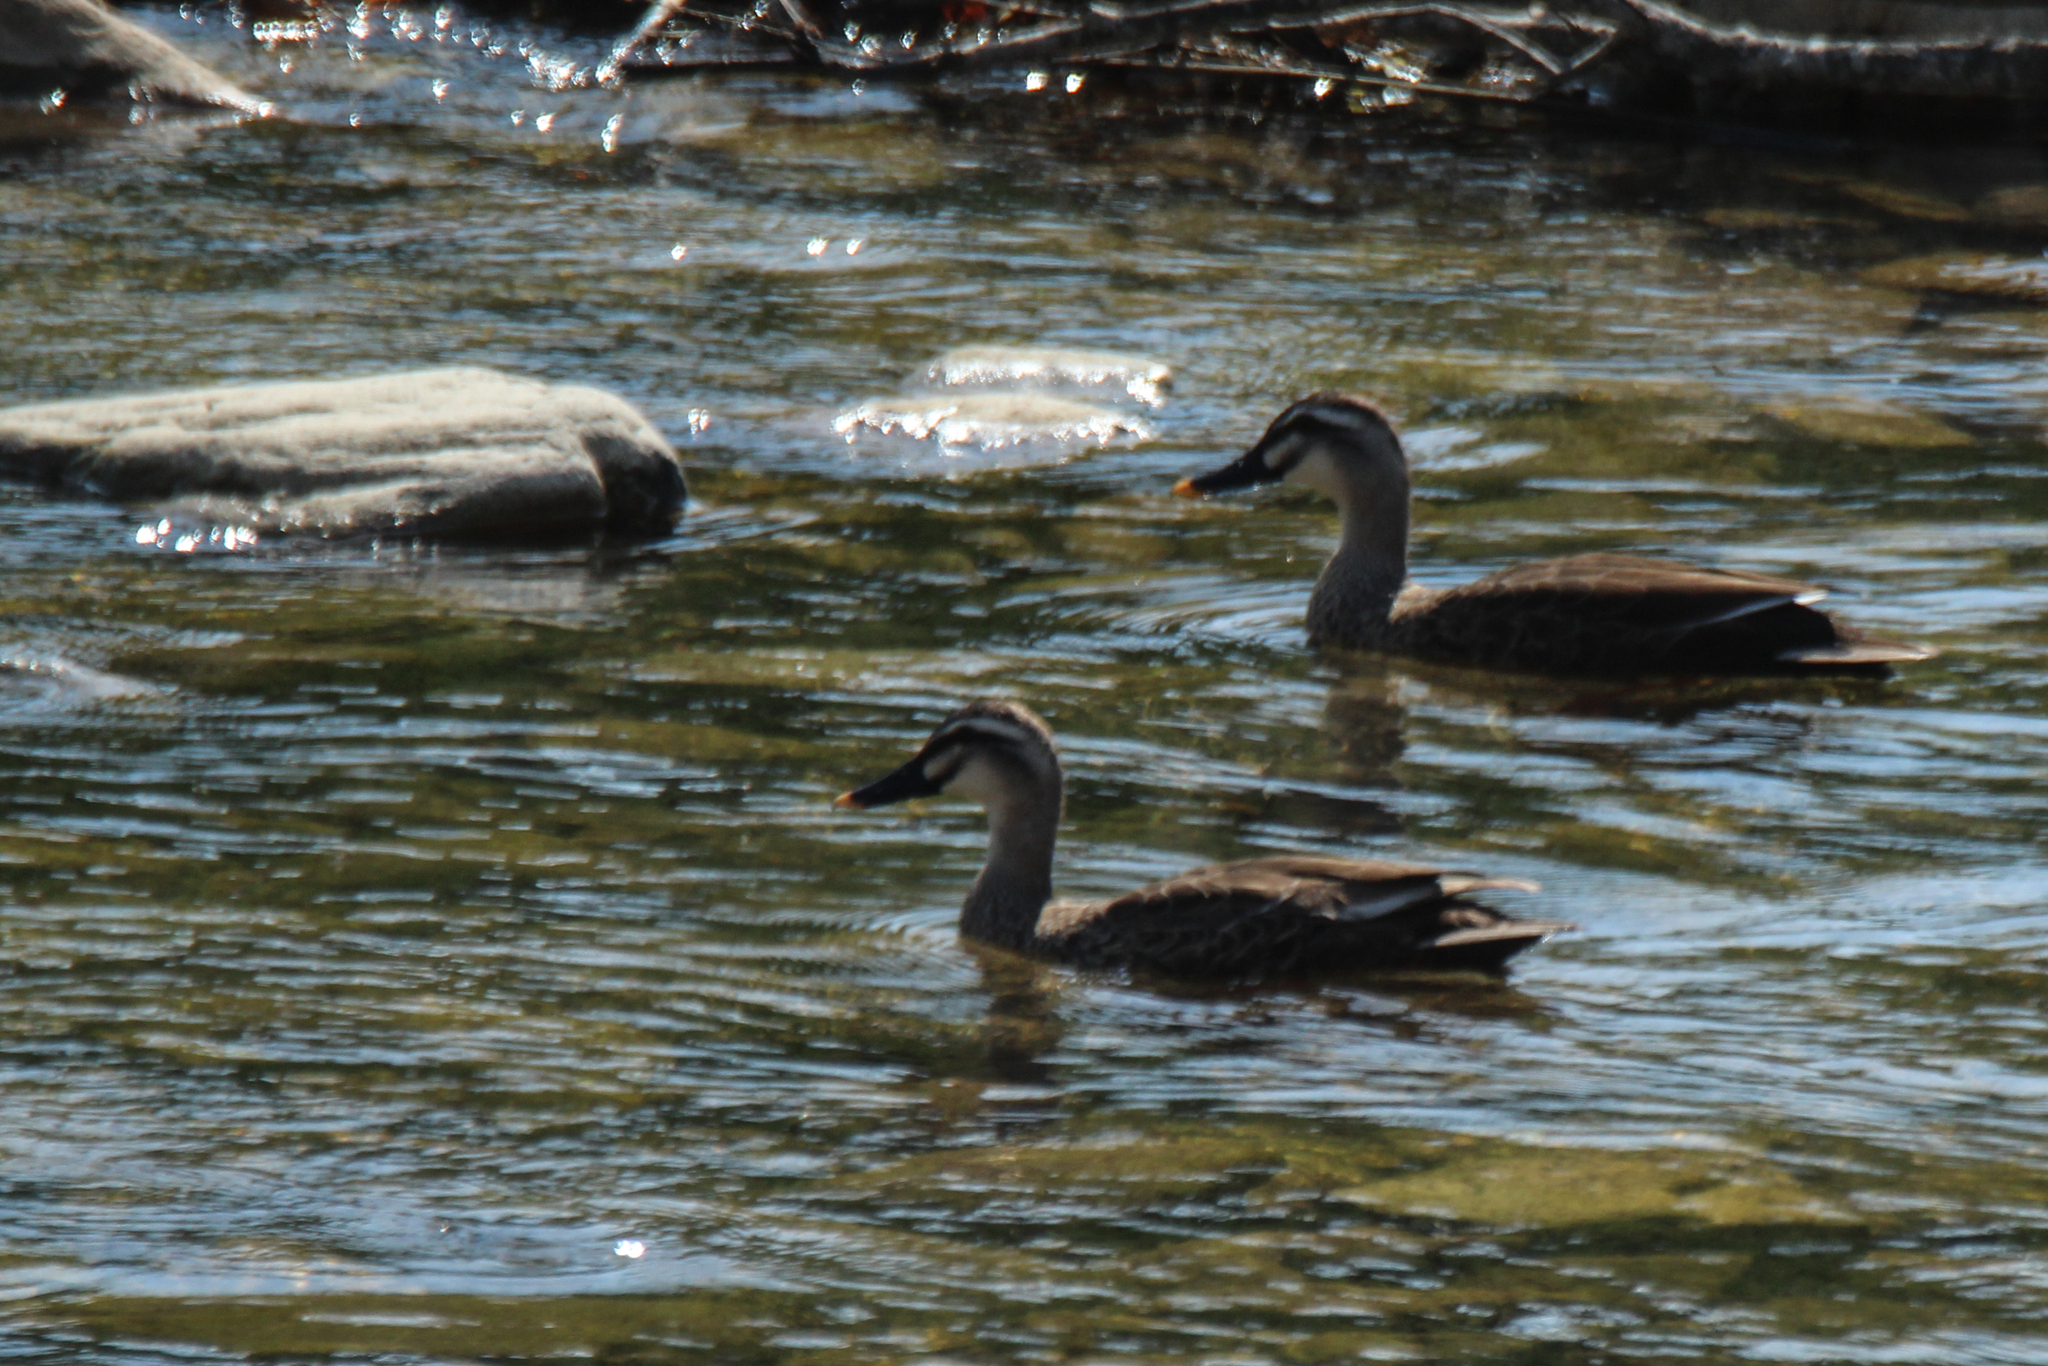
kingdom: Animalia
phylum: Chordata
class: Aves
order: Anseriformes
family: Anatidae
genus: Anas
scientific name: Anas zonorhyncha
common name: Eastern spot-billed duck
